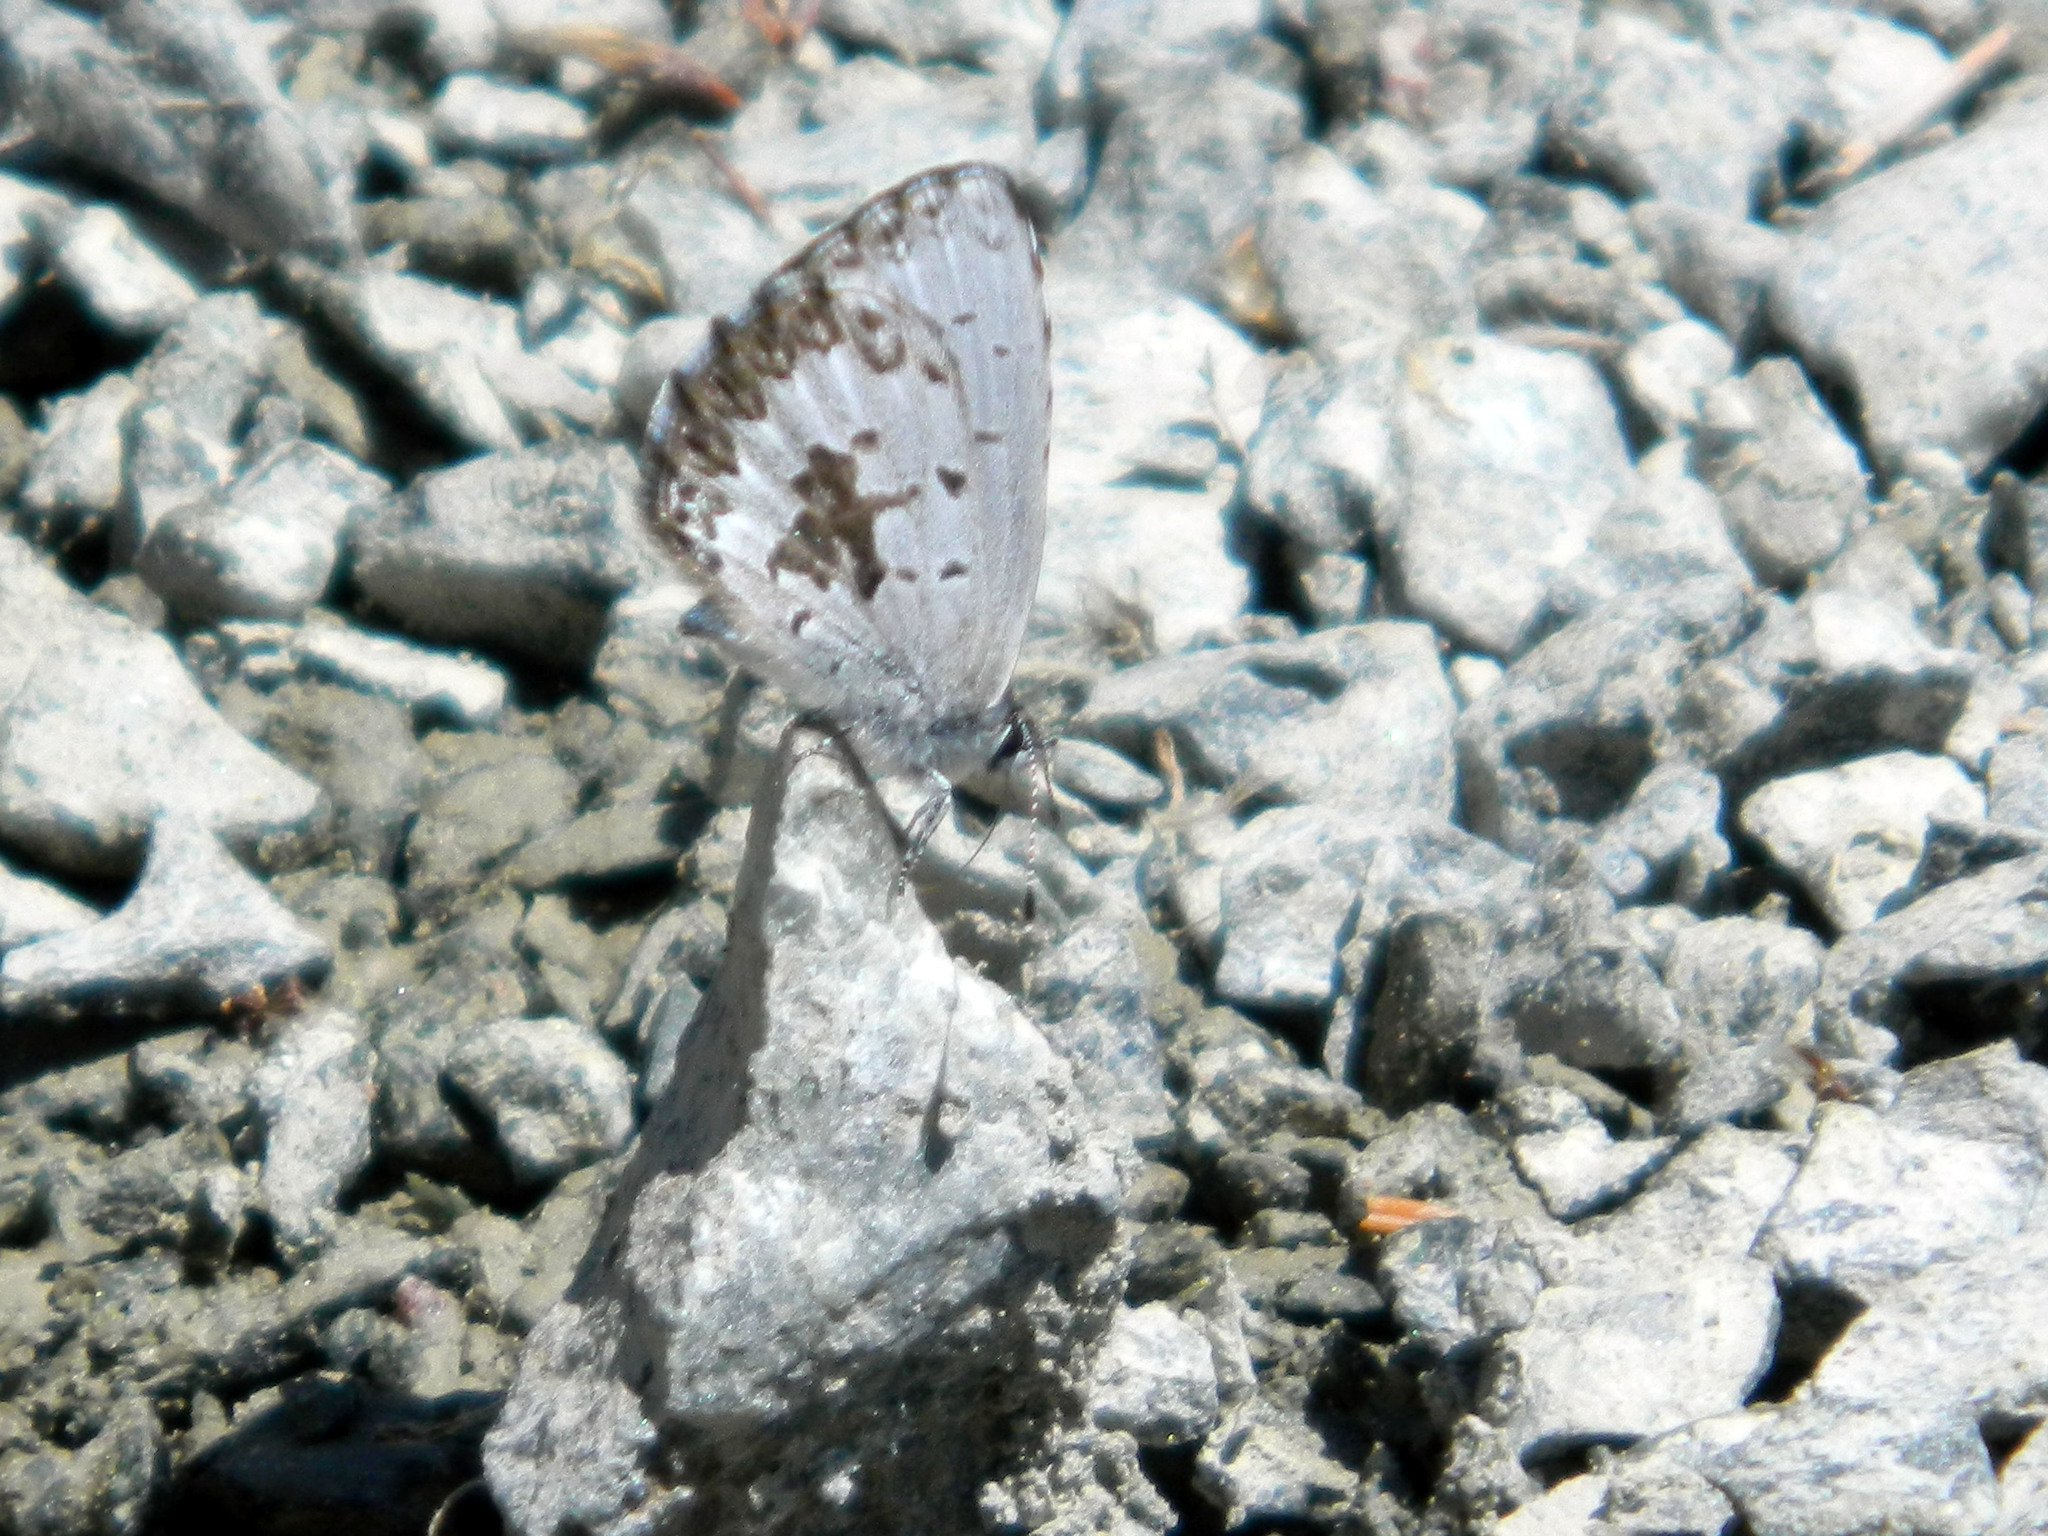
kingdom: Animalia
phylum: Arthropoda
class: Insecta
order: Lepidoptera
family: Lycaenidae
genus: Celastrina
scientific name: Celastrina lucia
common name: Lucia azure
